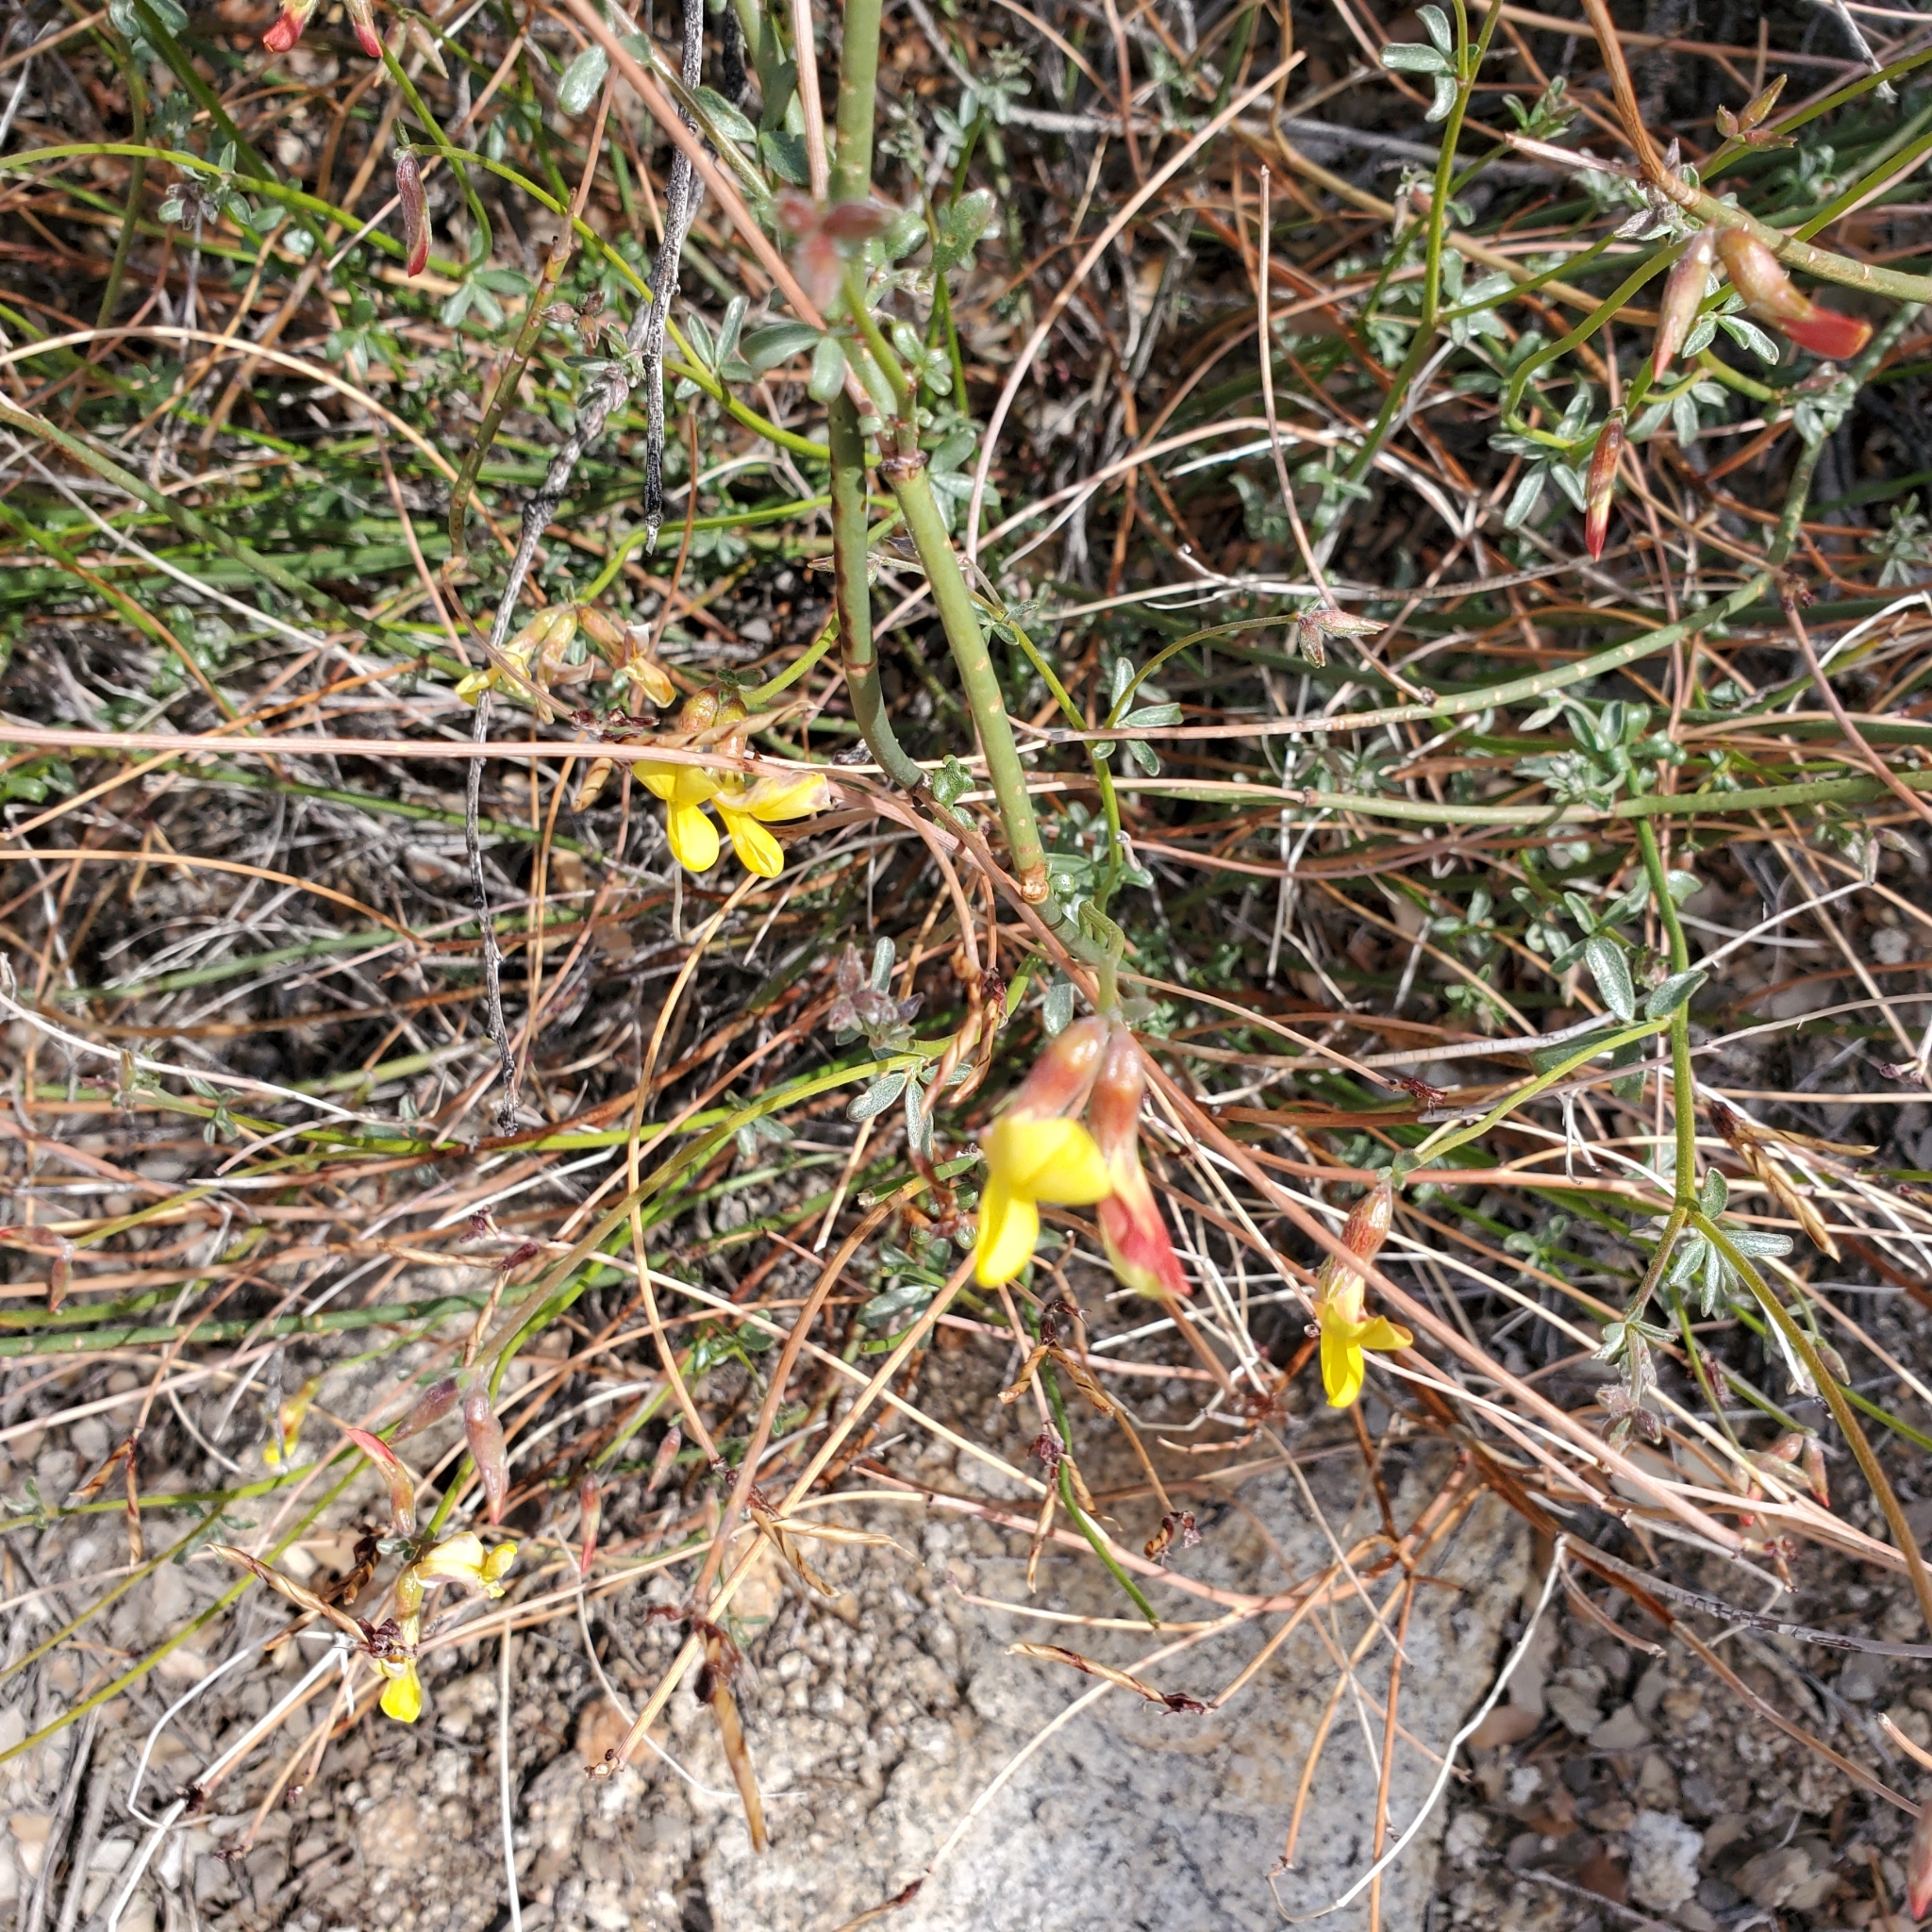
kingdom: Plantae
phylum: Tracheophyta
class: Magnoliopsida
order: Fabales
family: Fabaceae
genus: Acmispon
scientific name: Acmispon rigidus
